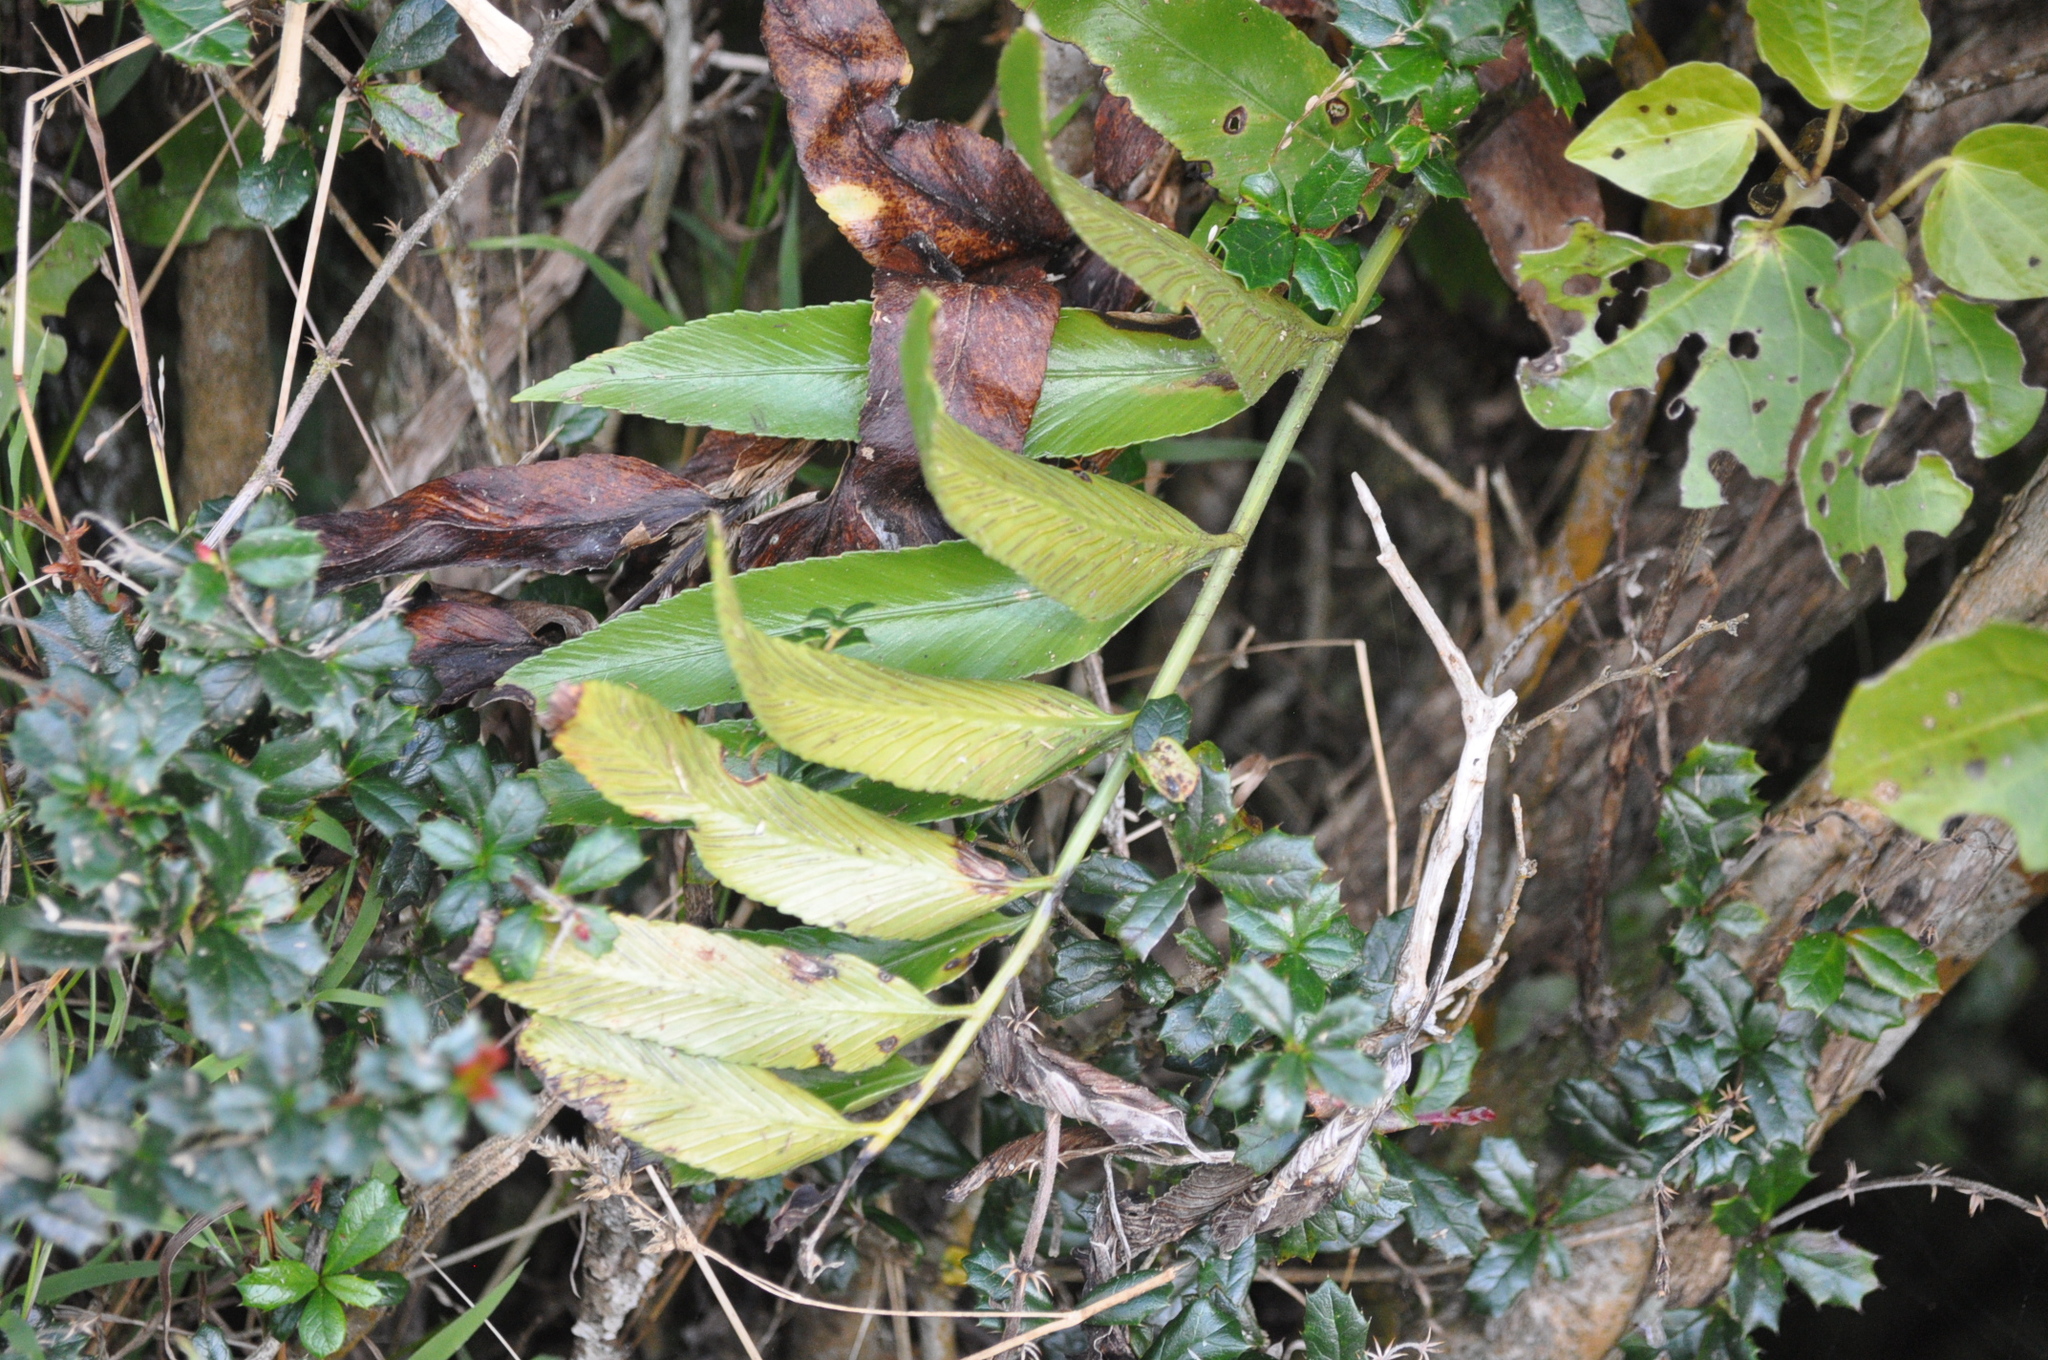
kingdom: Plantae
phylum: Tracheophyta
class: Polypodiopsida
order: Polypodiales
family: Aspleniaceae
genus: Asplenium
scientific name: Asplenium oblongifolium
